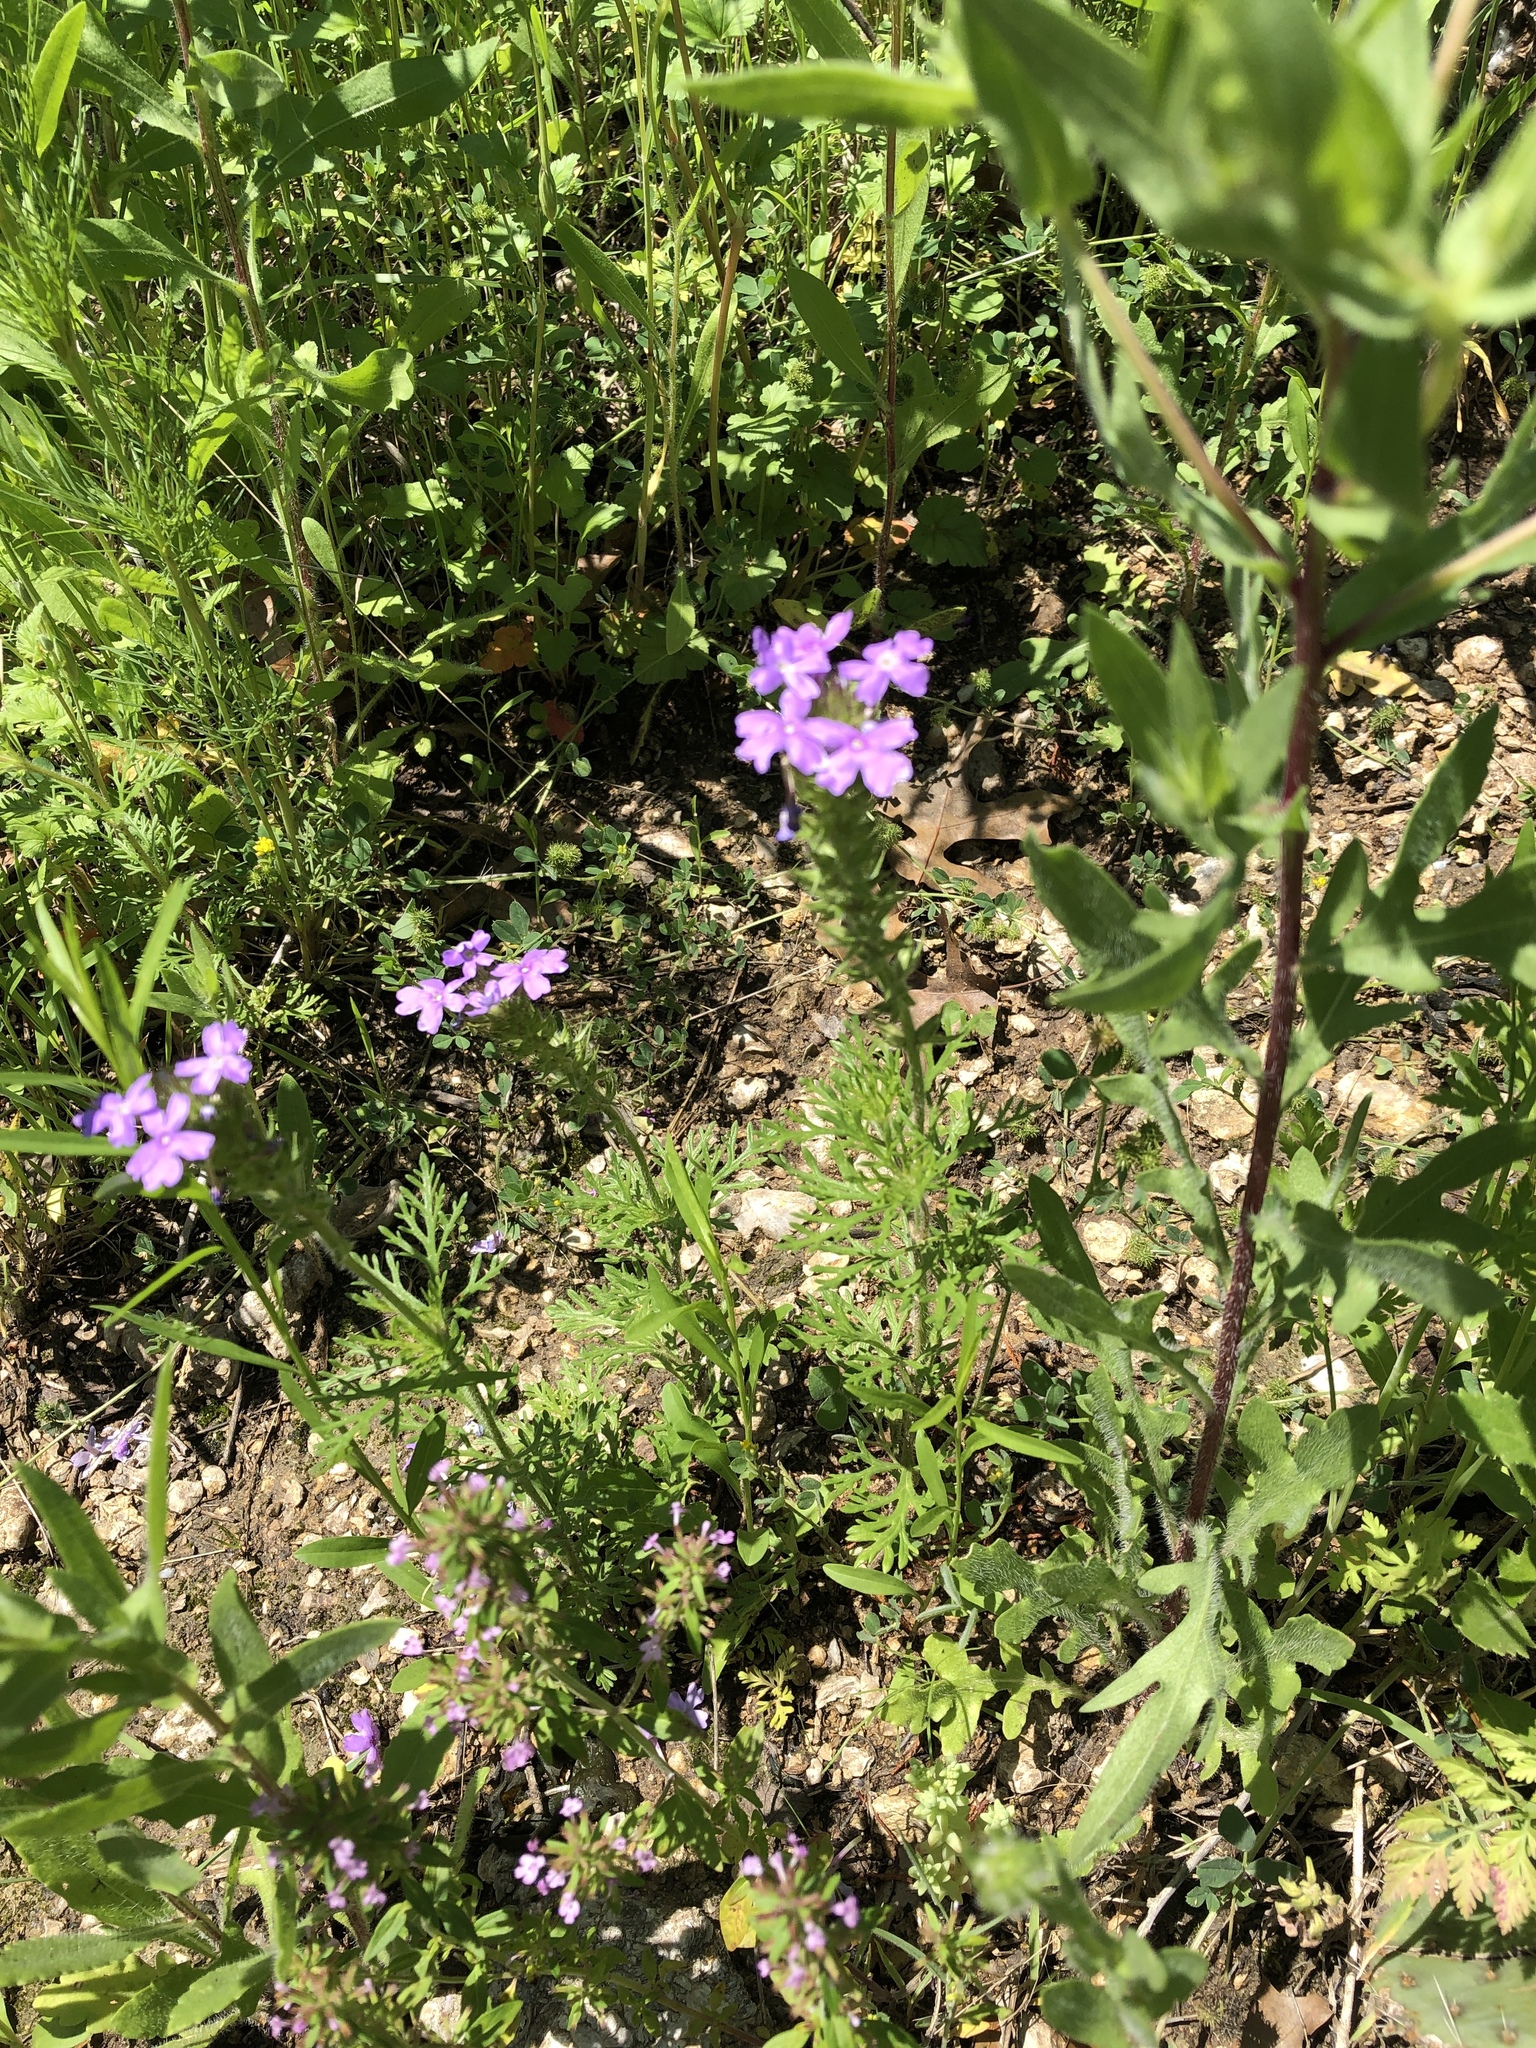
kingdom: Plantae
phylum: Tracheophyta
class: Magnoliopsida
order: Lamiales
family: Verbenaceae
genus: Verbena
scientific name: Verbena bipinnatifida
